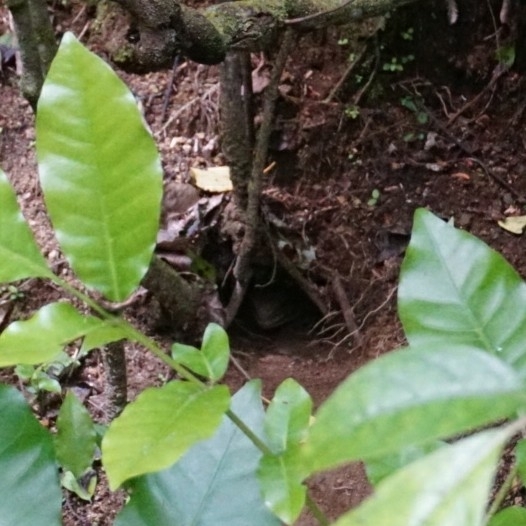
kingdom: Animalia
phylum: Chordata
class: Sphenodontia
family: Sphenodontidae
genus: Sphenodon
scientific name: Sphenodon punctatus
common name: Tuatara
